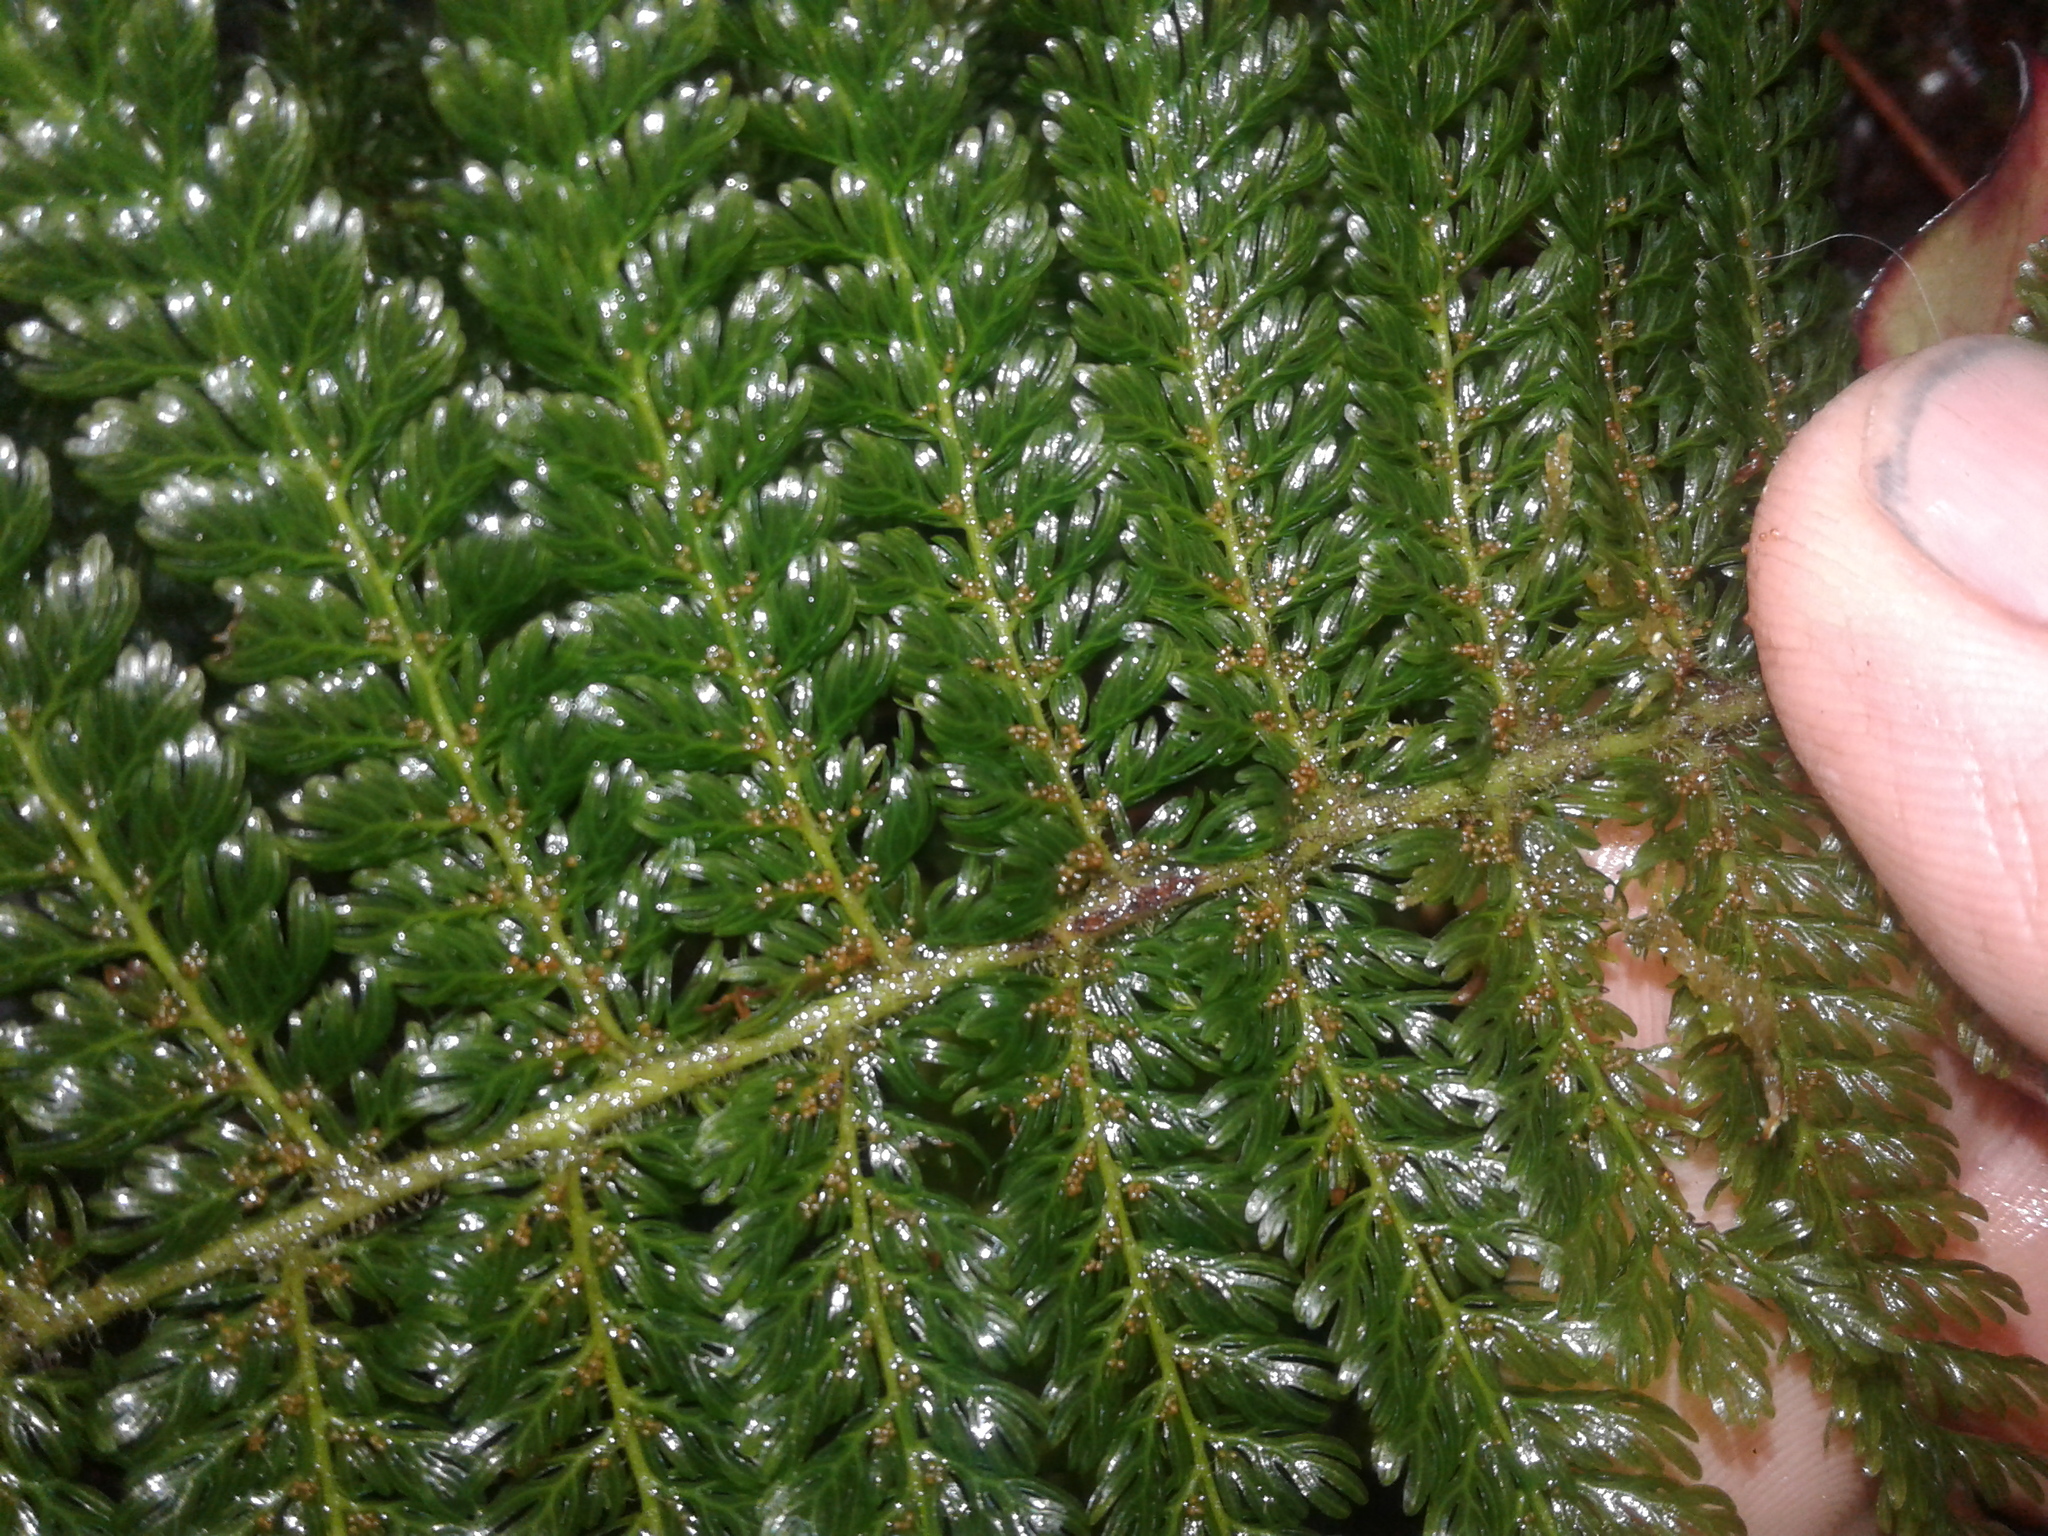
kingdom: Plantae
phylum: Tracheophyta
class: Polypodiopsida
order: Osmundales
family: Osmundaceae
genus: Leptopteris
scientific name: Leptopteris superba
